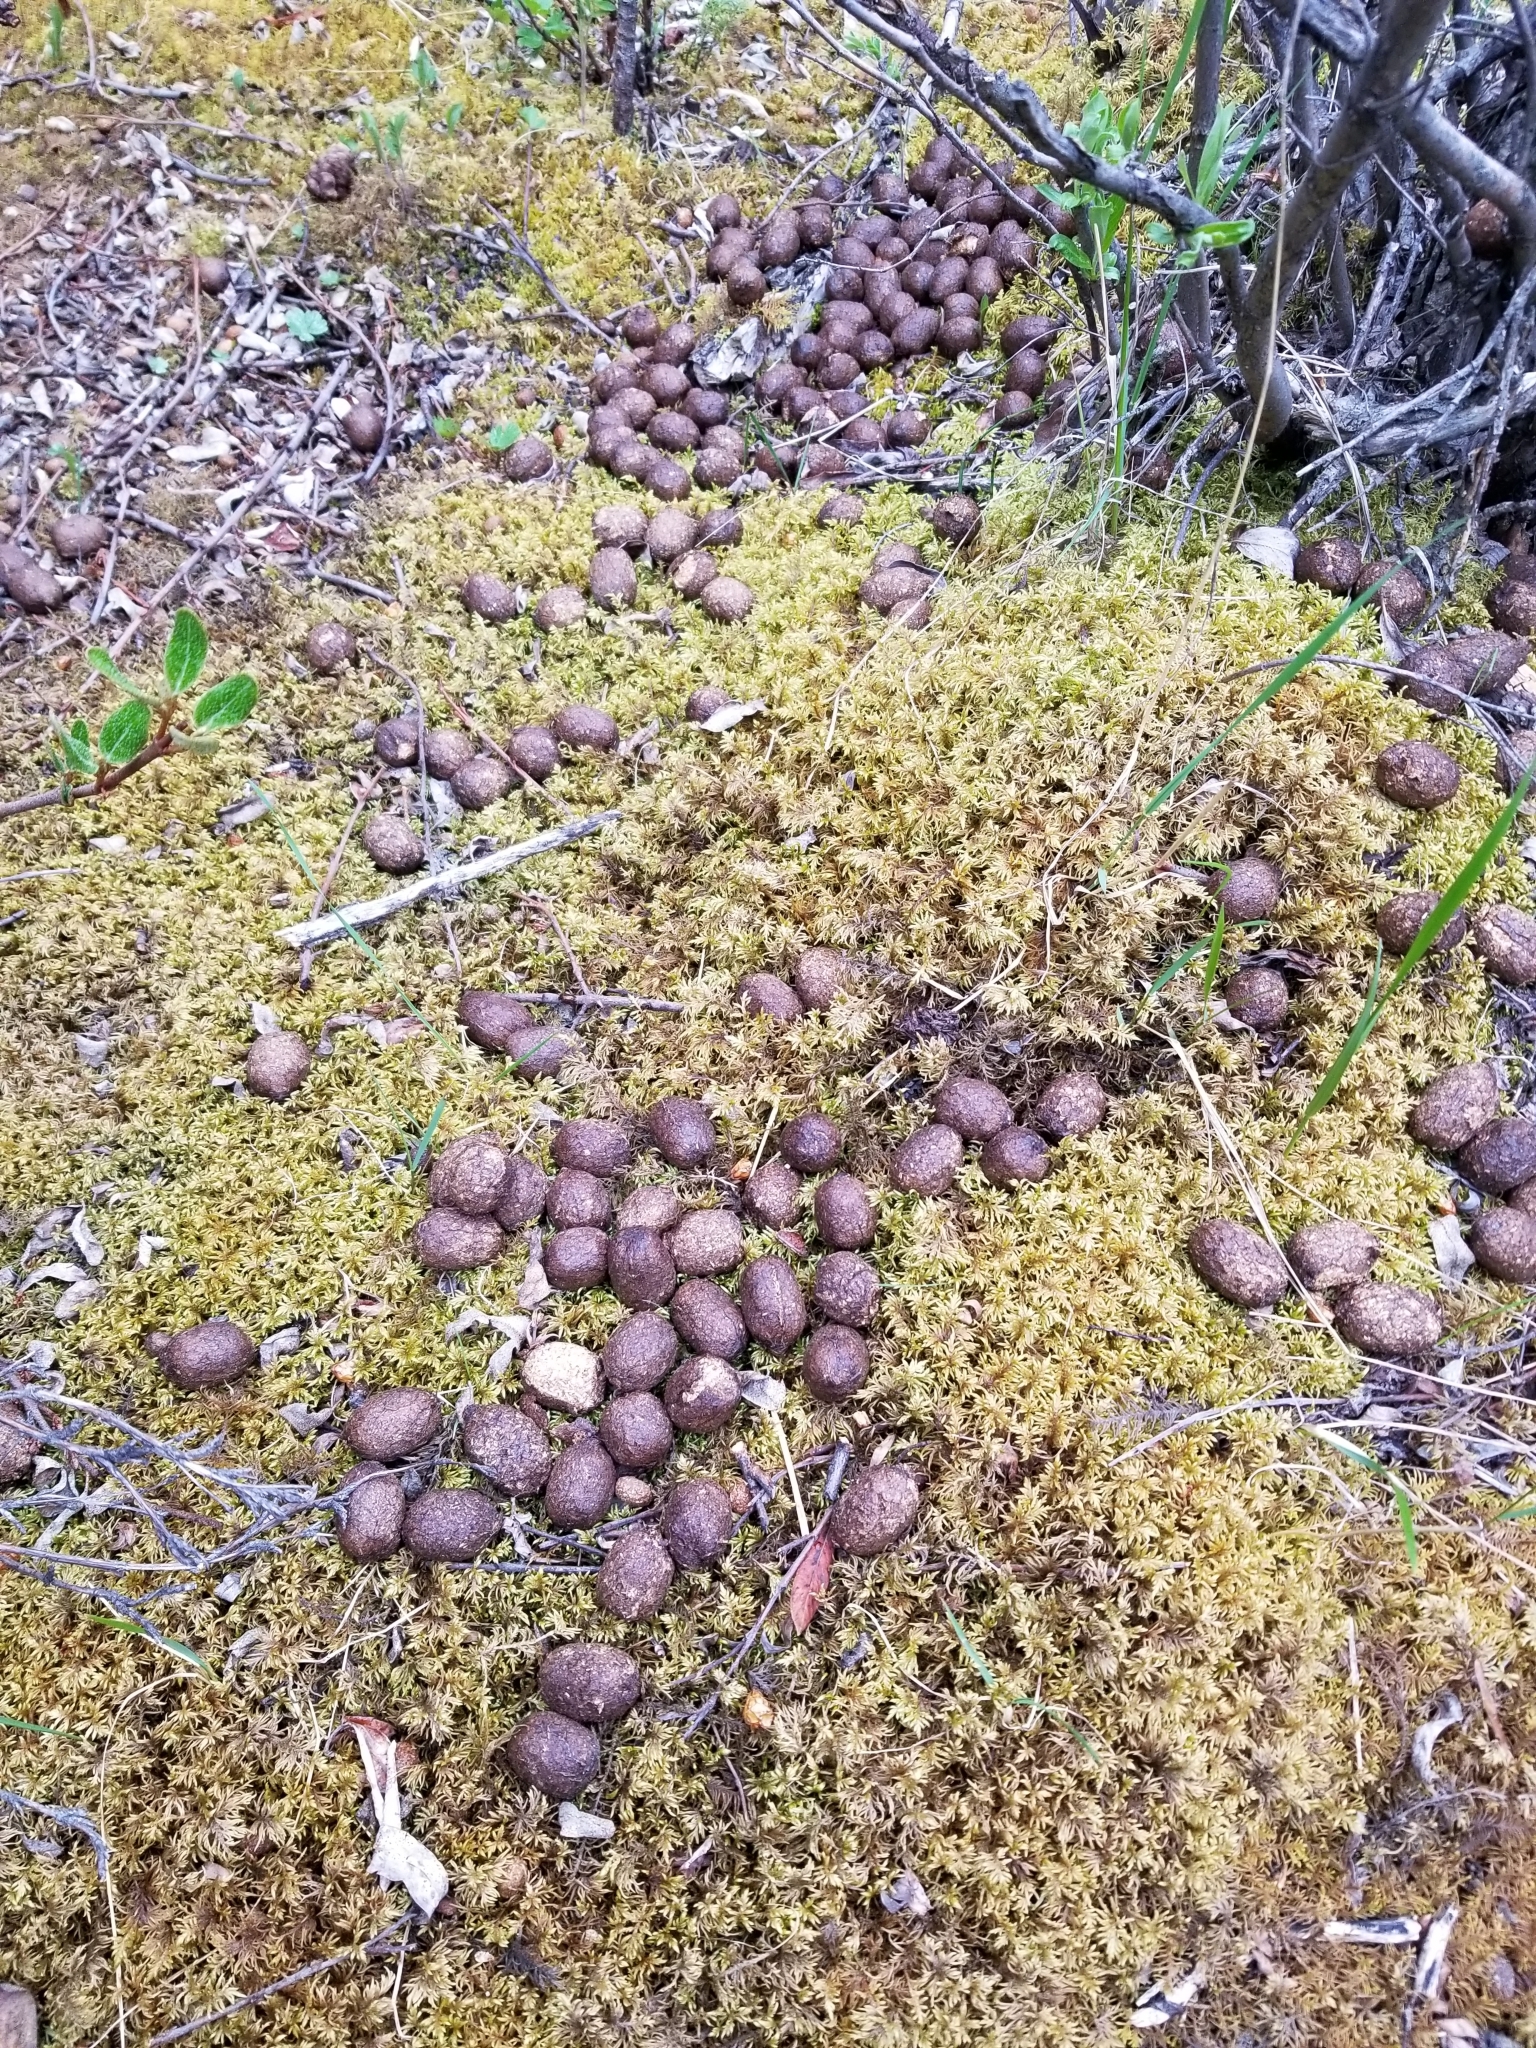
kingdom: Animalia
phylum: Chordata
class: Mammalia
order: Artiodactyla
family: Cervidae
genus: Alces
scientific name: Alces alces
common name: Moose
